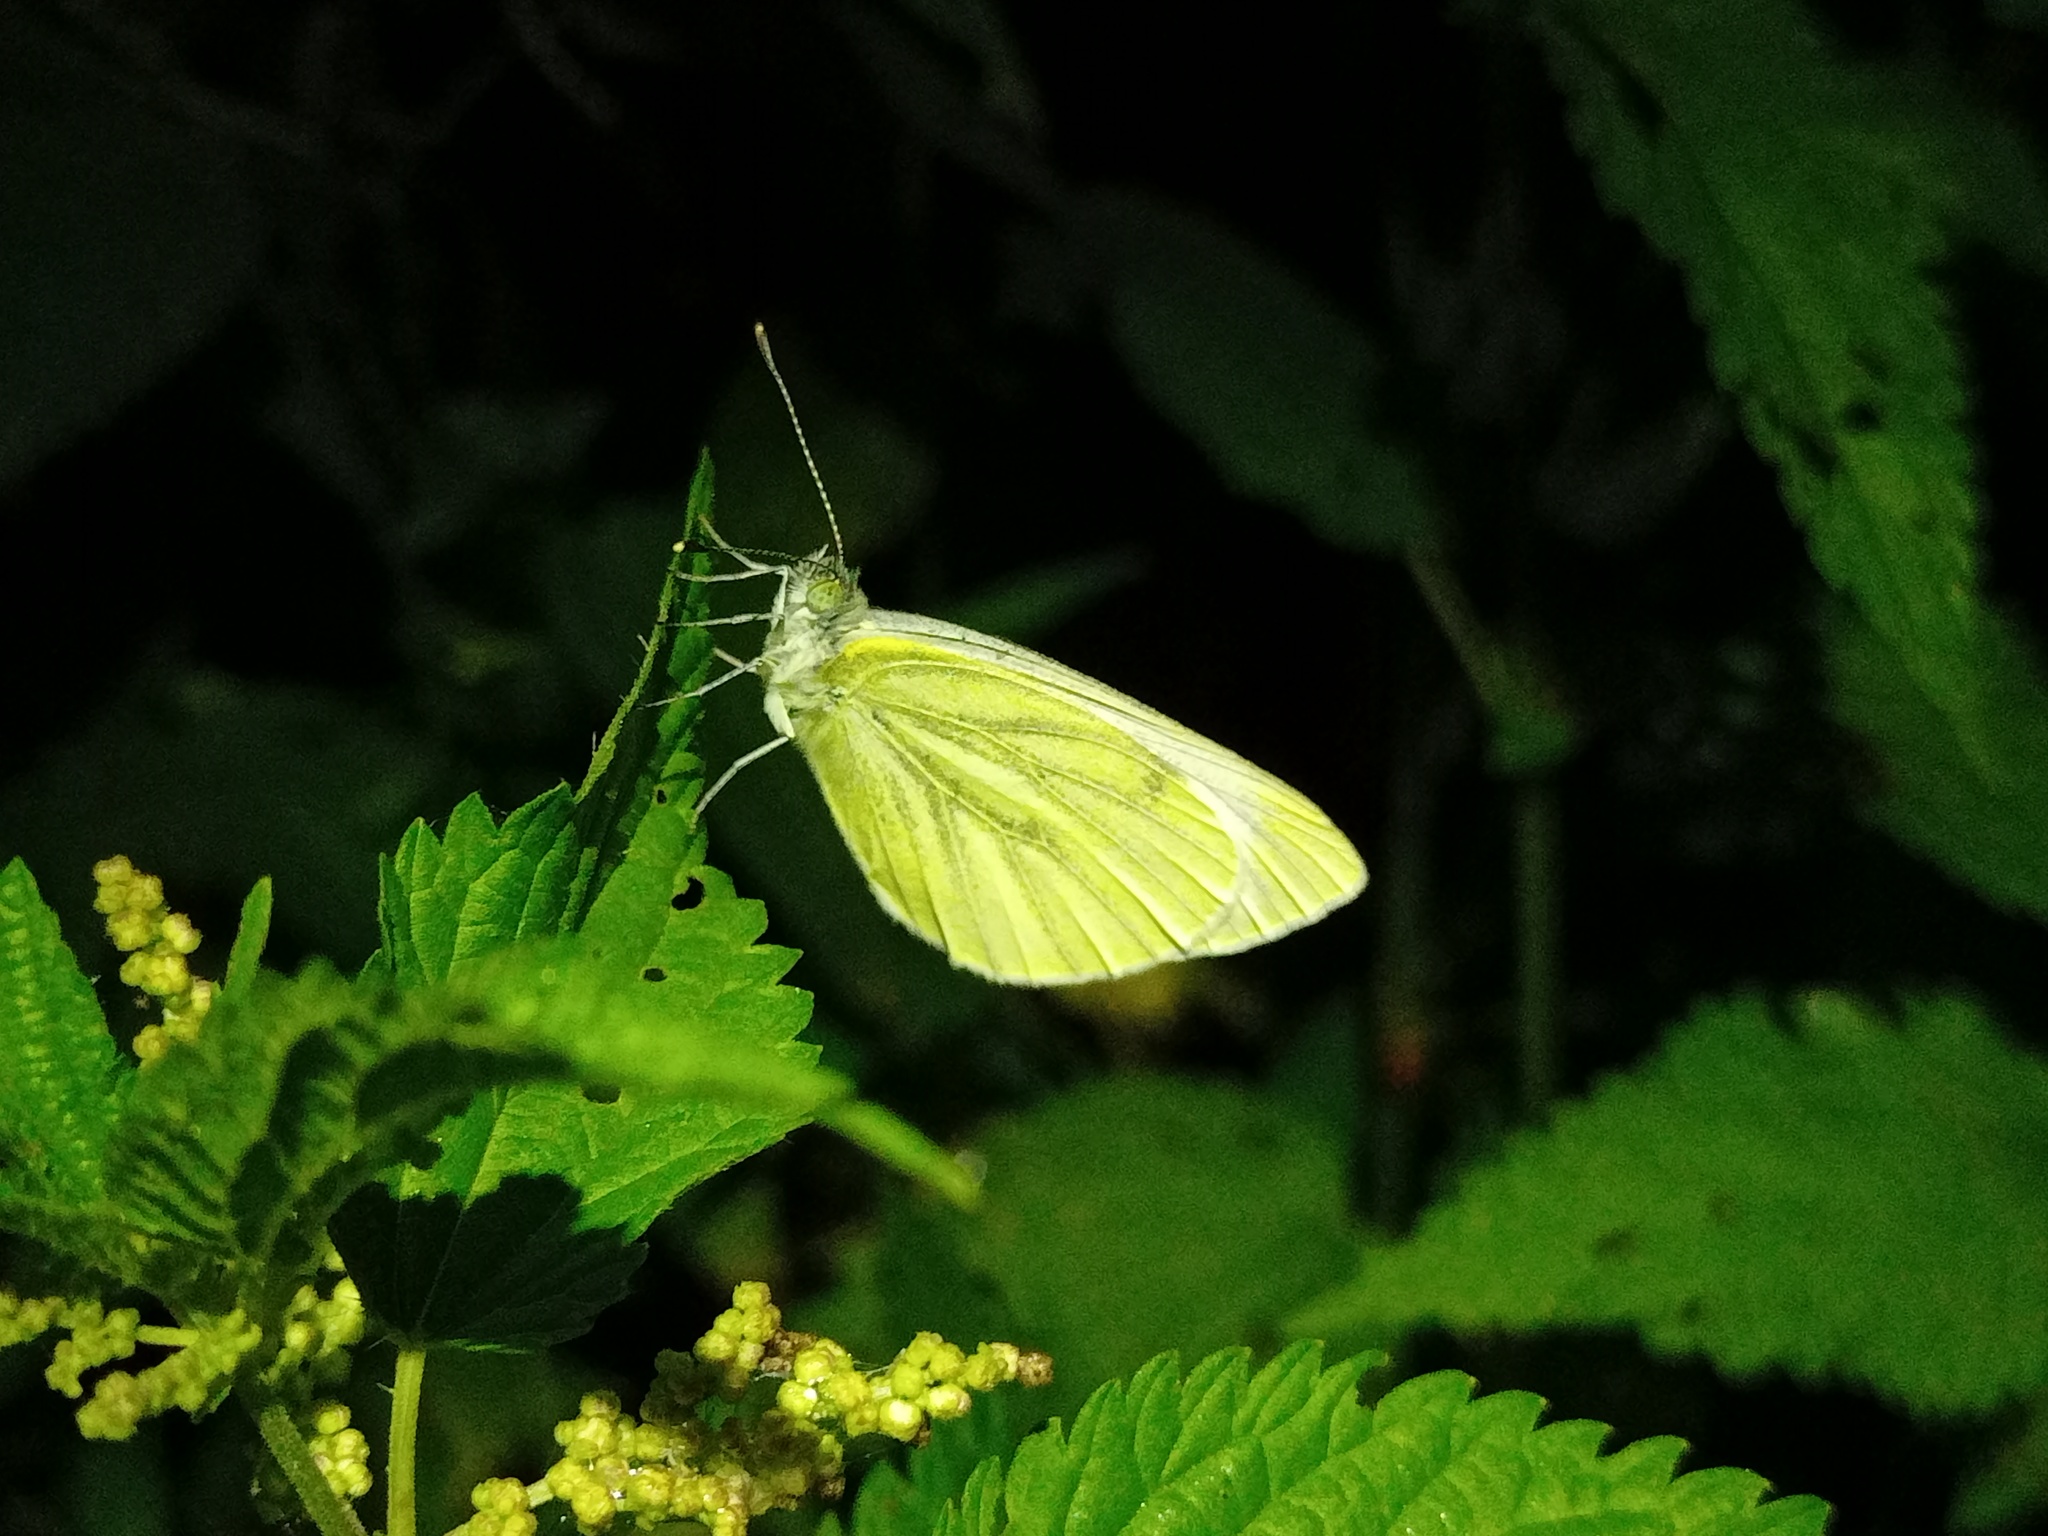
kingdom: Animalia
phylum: Arthropoda
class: Insecta
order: Lepidoptera
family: Pieridae
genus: Pieris
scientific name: Pieris napi
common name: Green-veined white
